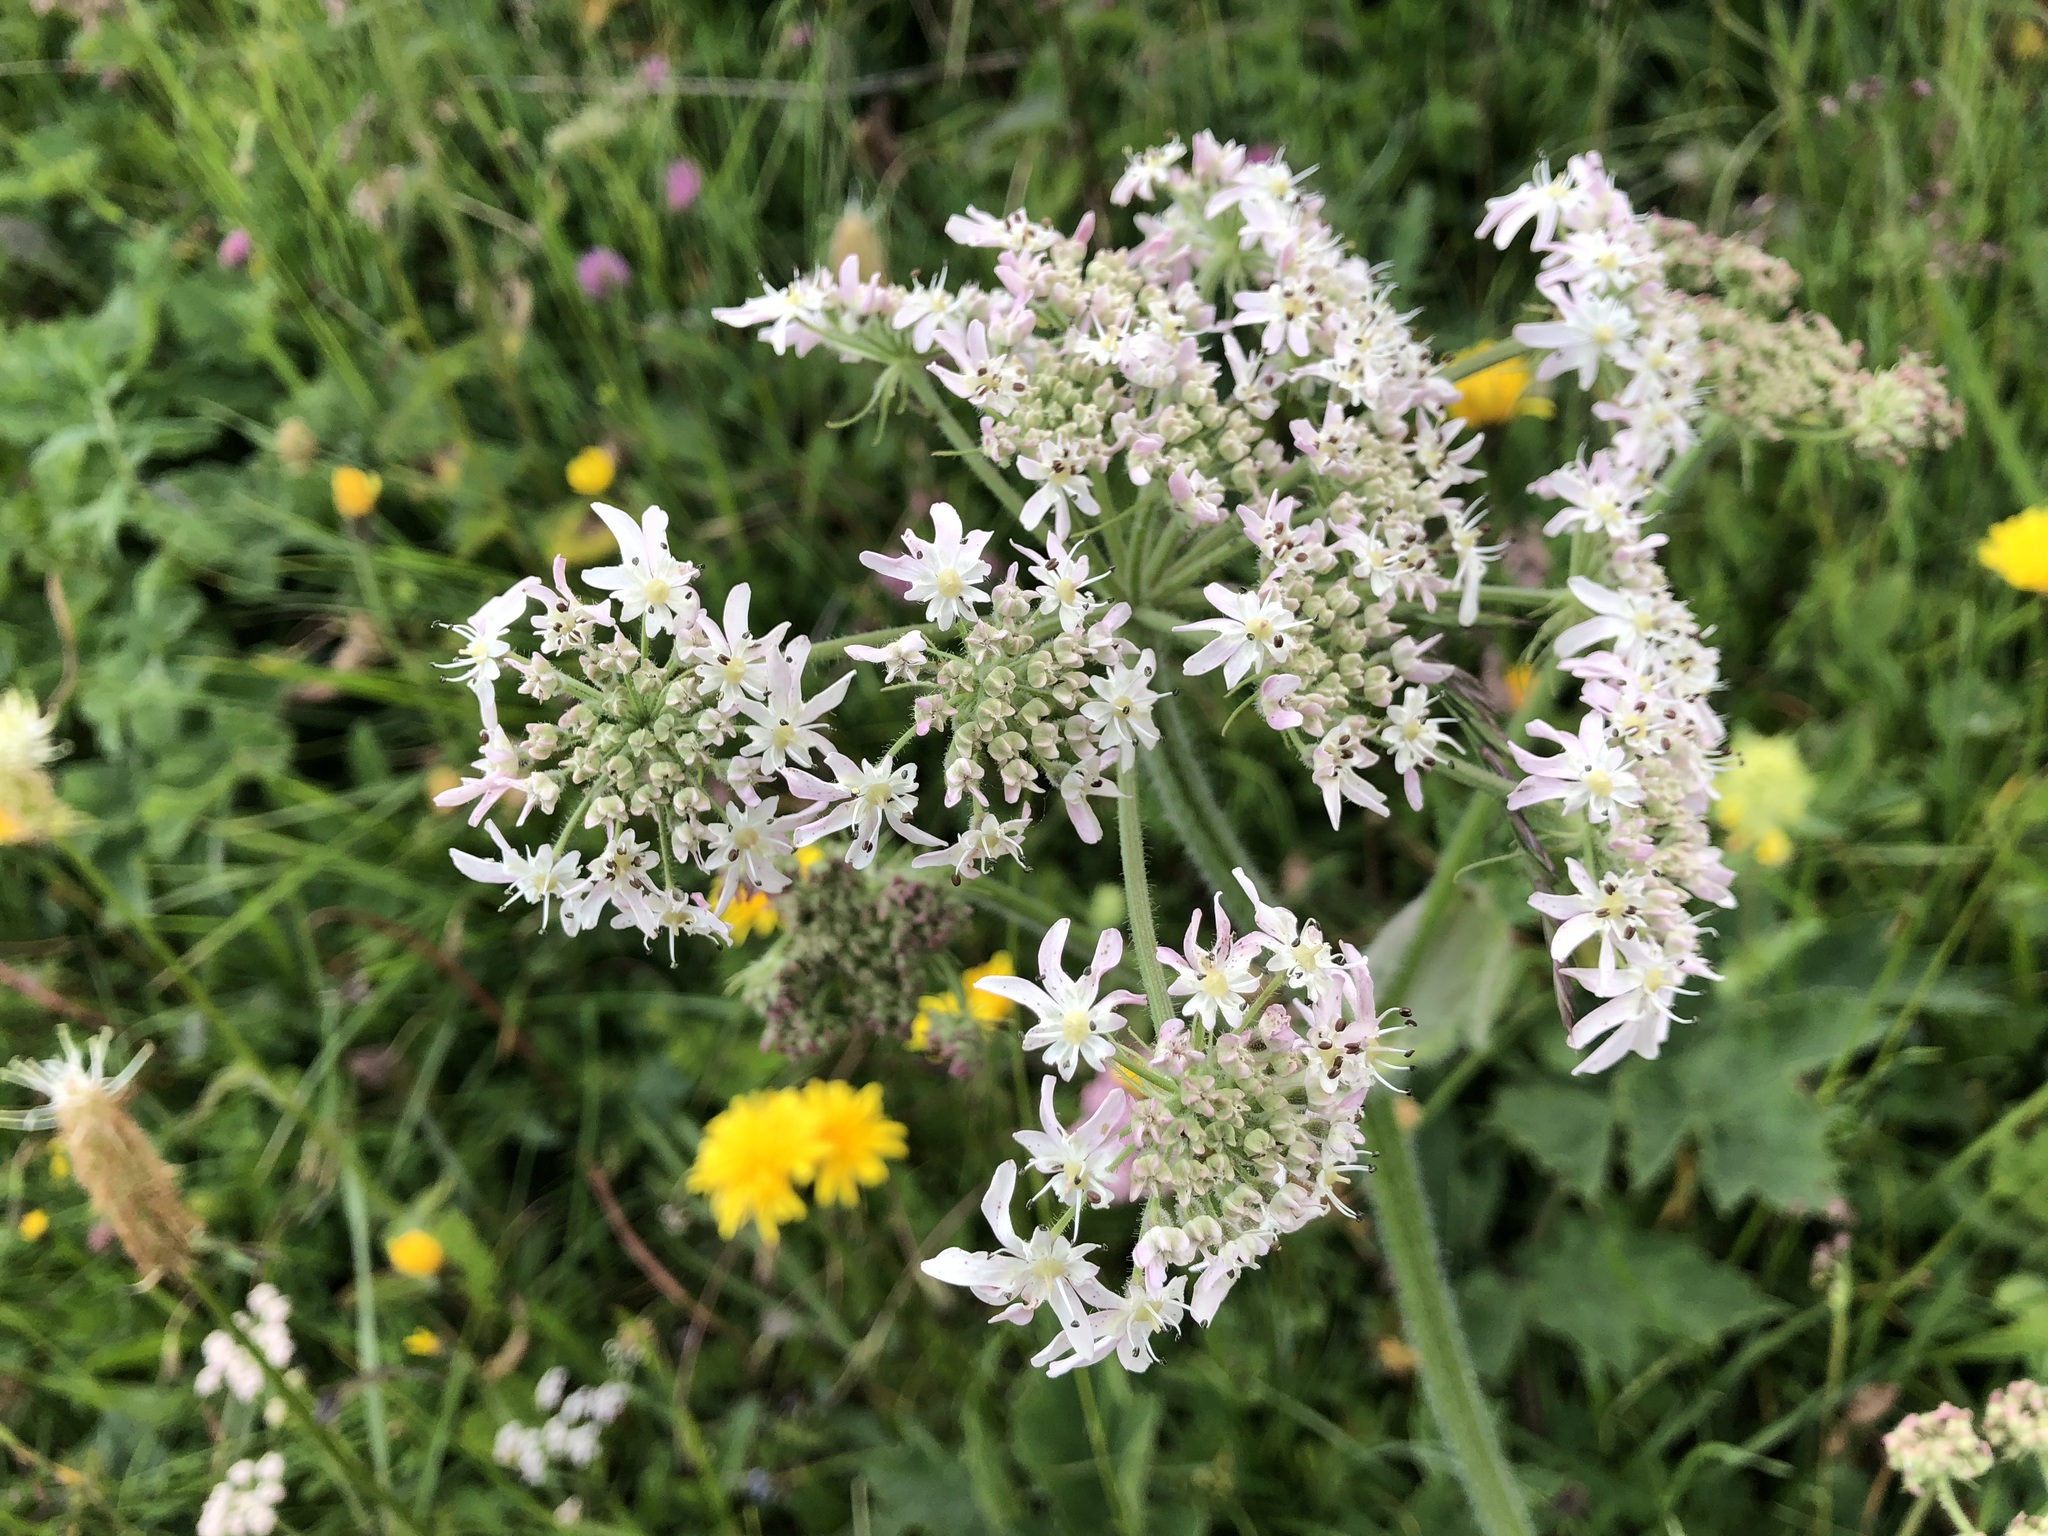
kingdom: Plantae
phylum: Tracheophyta
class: Magnoliopsida
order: Apiales
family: Apiaceae
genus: Heracleum
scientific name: Heracleum sphondylium
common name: Hogweed
